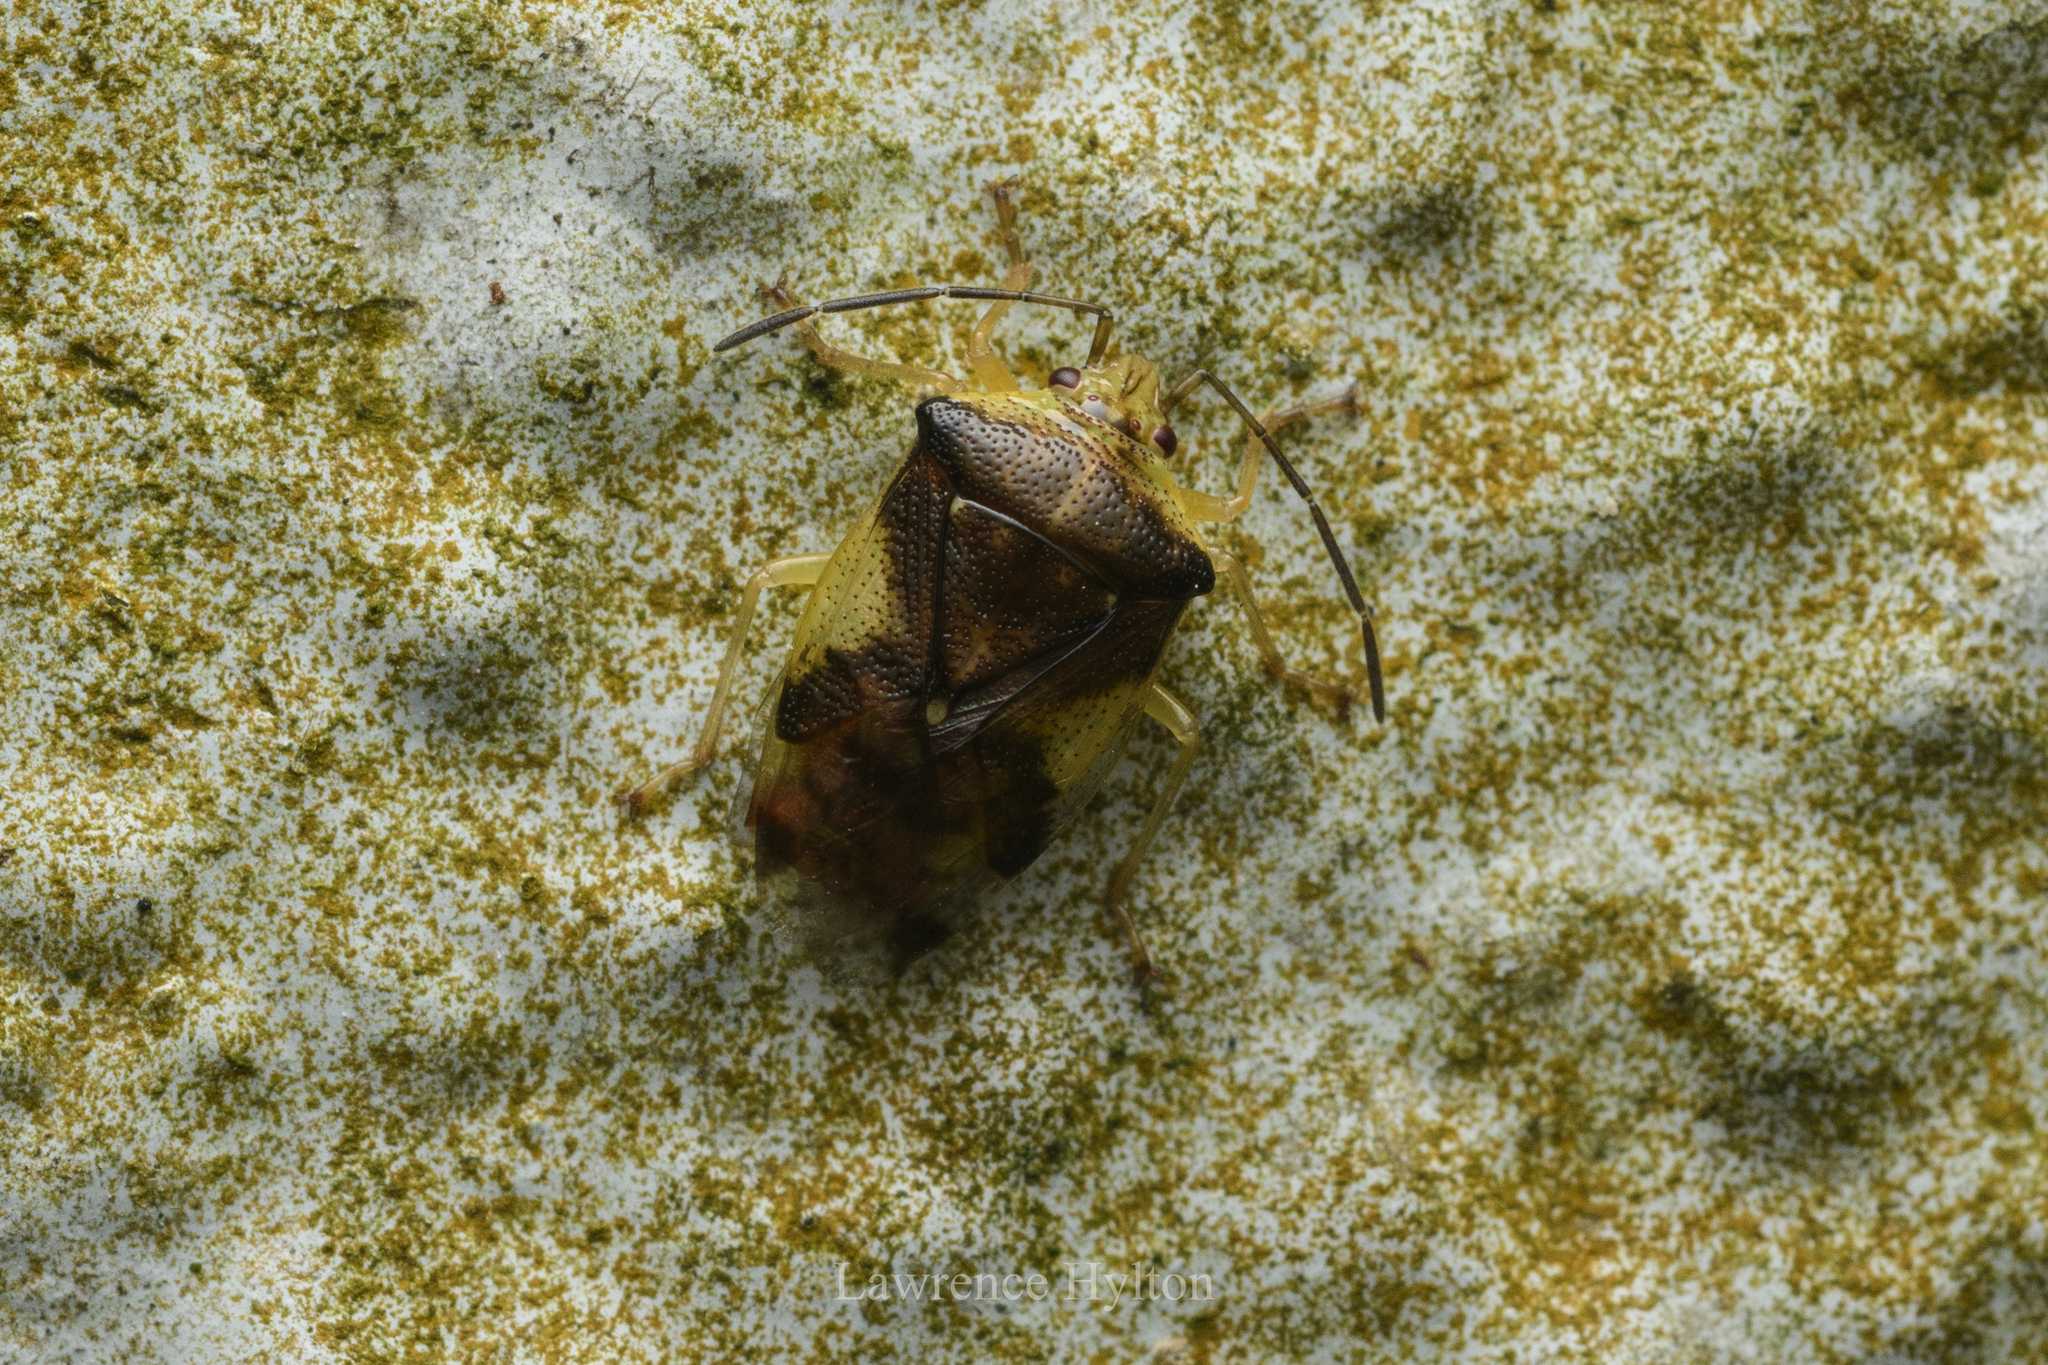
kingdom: Animalia
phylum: Arthropoda
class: Insecta
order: Hemiptera
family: Acanthosomatidae
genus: Elasmostethus
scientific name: Elasmostethus nubilus
